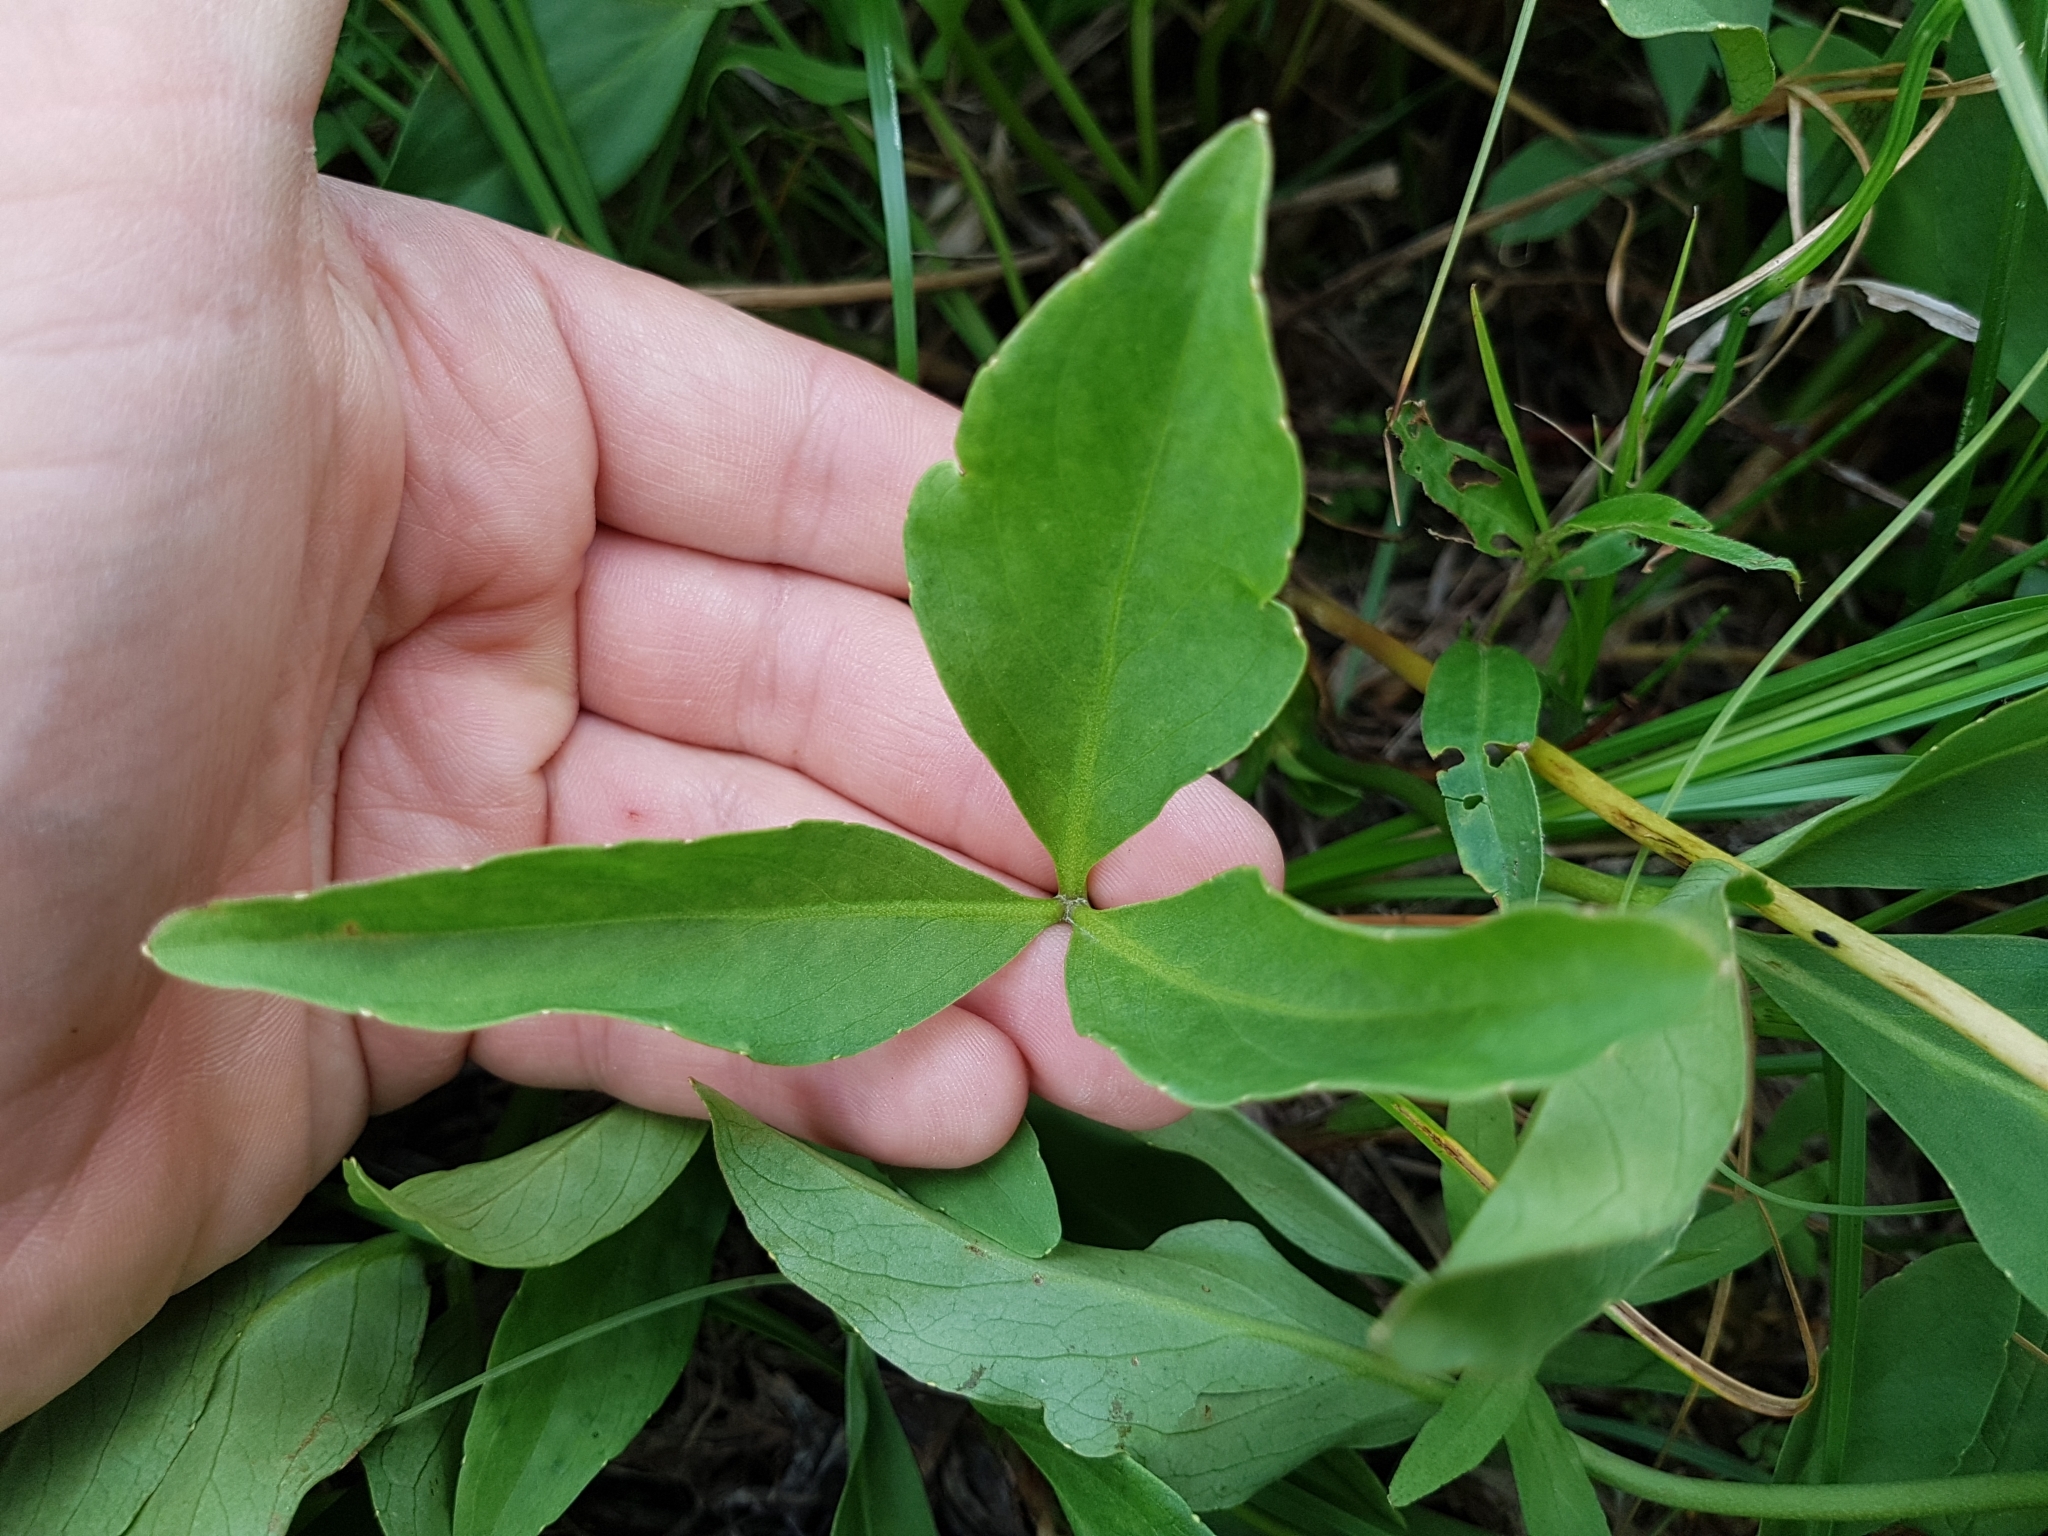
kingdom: Plantae
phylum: Tracheophyta
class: Magnoliopsida
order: Asterales
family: Menyanthaceae
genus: Menyanthes
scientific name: Menyanthes trifoliata
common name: Bogbean
